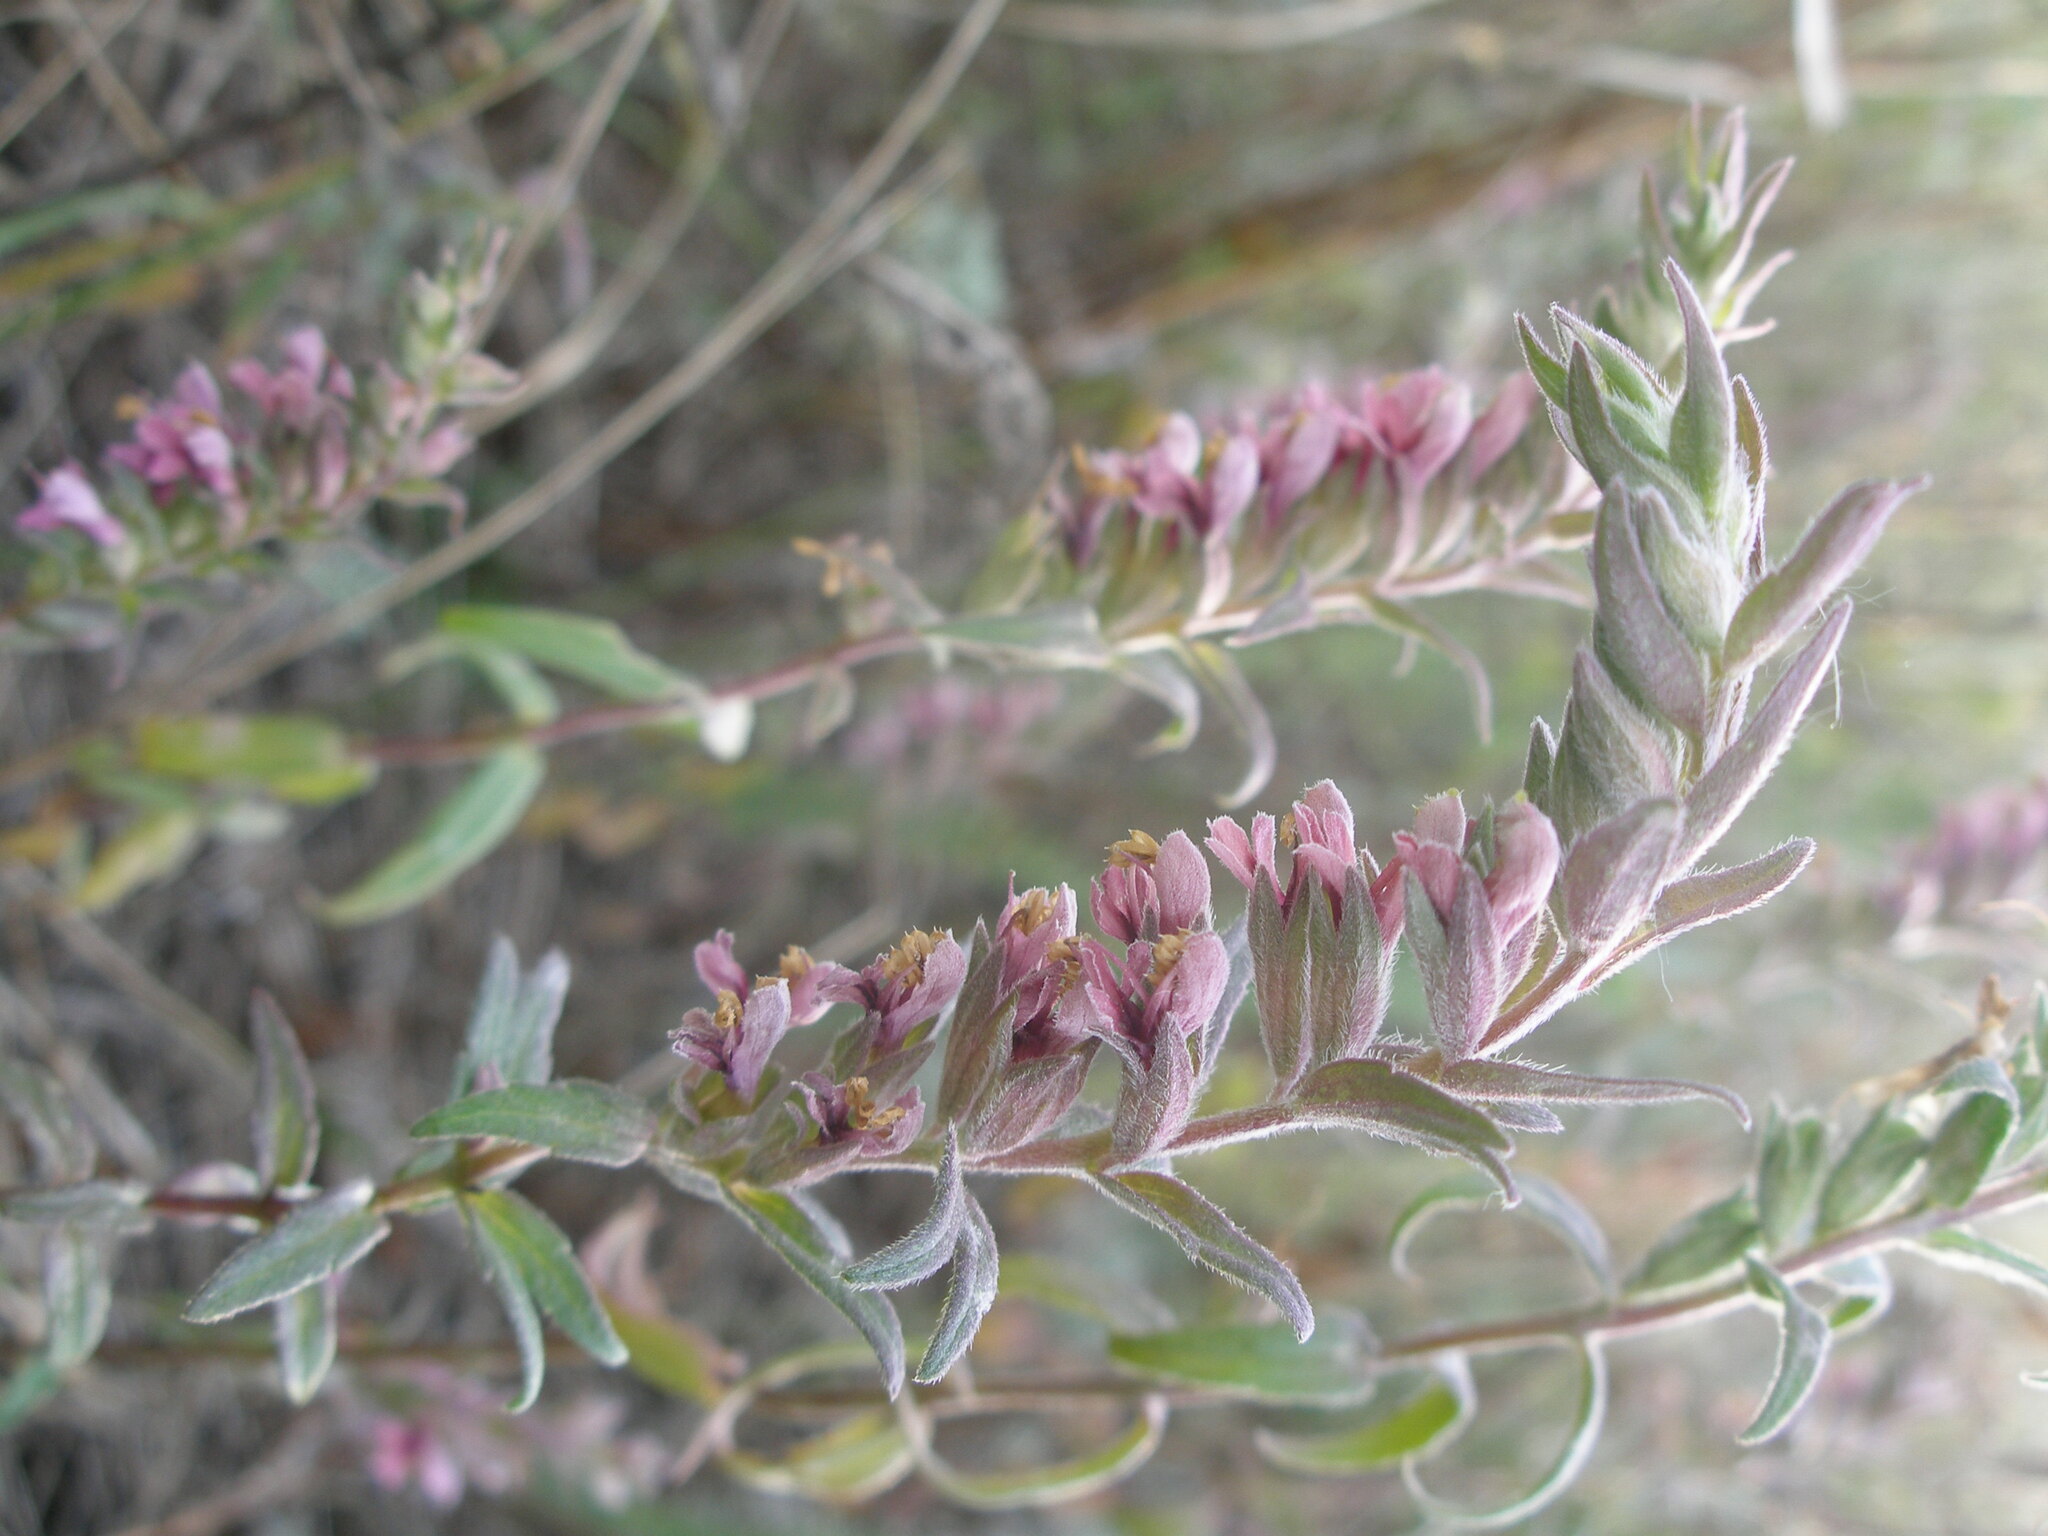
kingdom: Plantae
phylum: Tracheophyta
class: Magnoliopsida
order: Lamiales
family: Orobanchaceae
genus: Odontites
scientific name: Odontites vulgaris
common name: Broomrape
